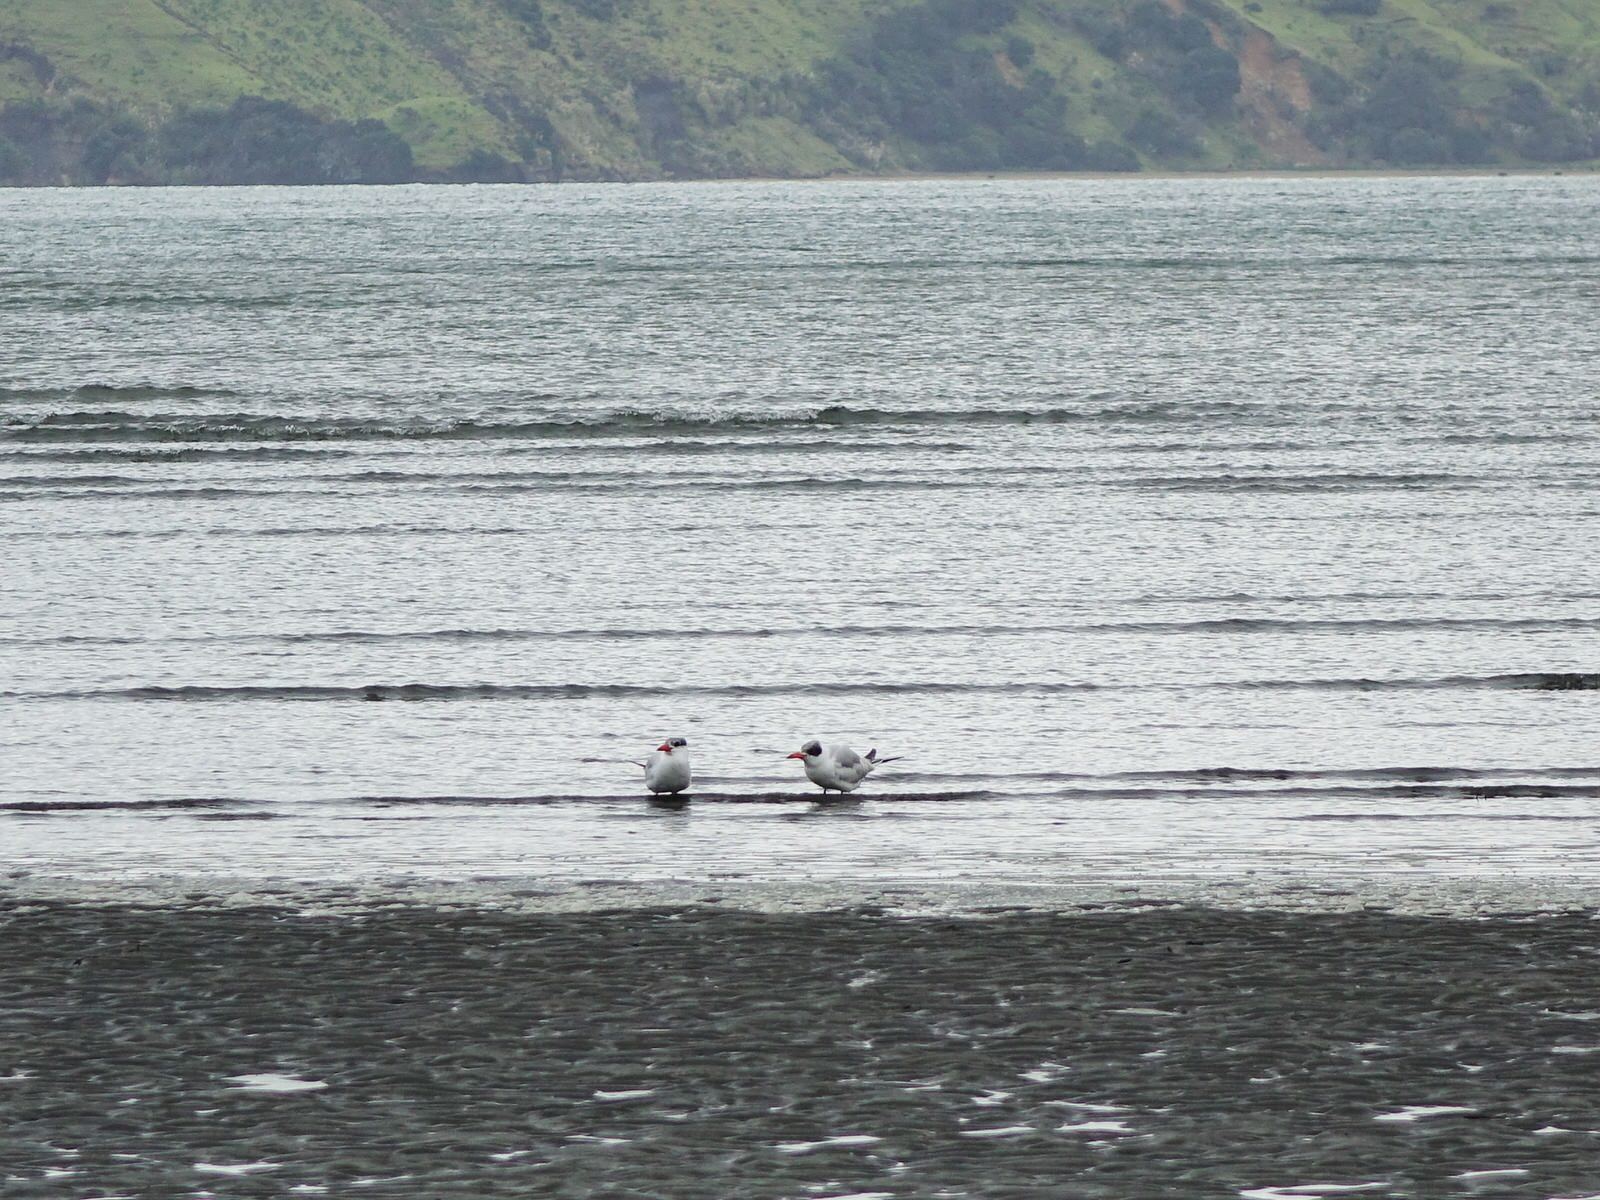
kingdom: Animalia
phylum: Chordata
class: Aves
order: Charadriiformes
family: Laridae
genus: Hydroprogne
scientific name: Hydroprogne caspia
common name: Caspian tern
